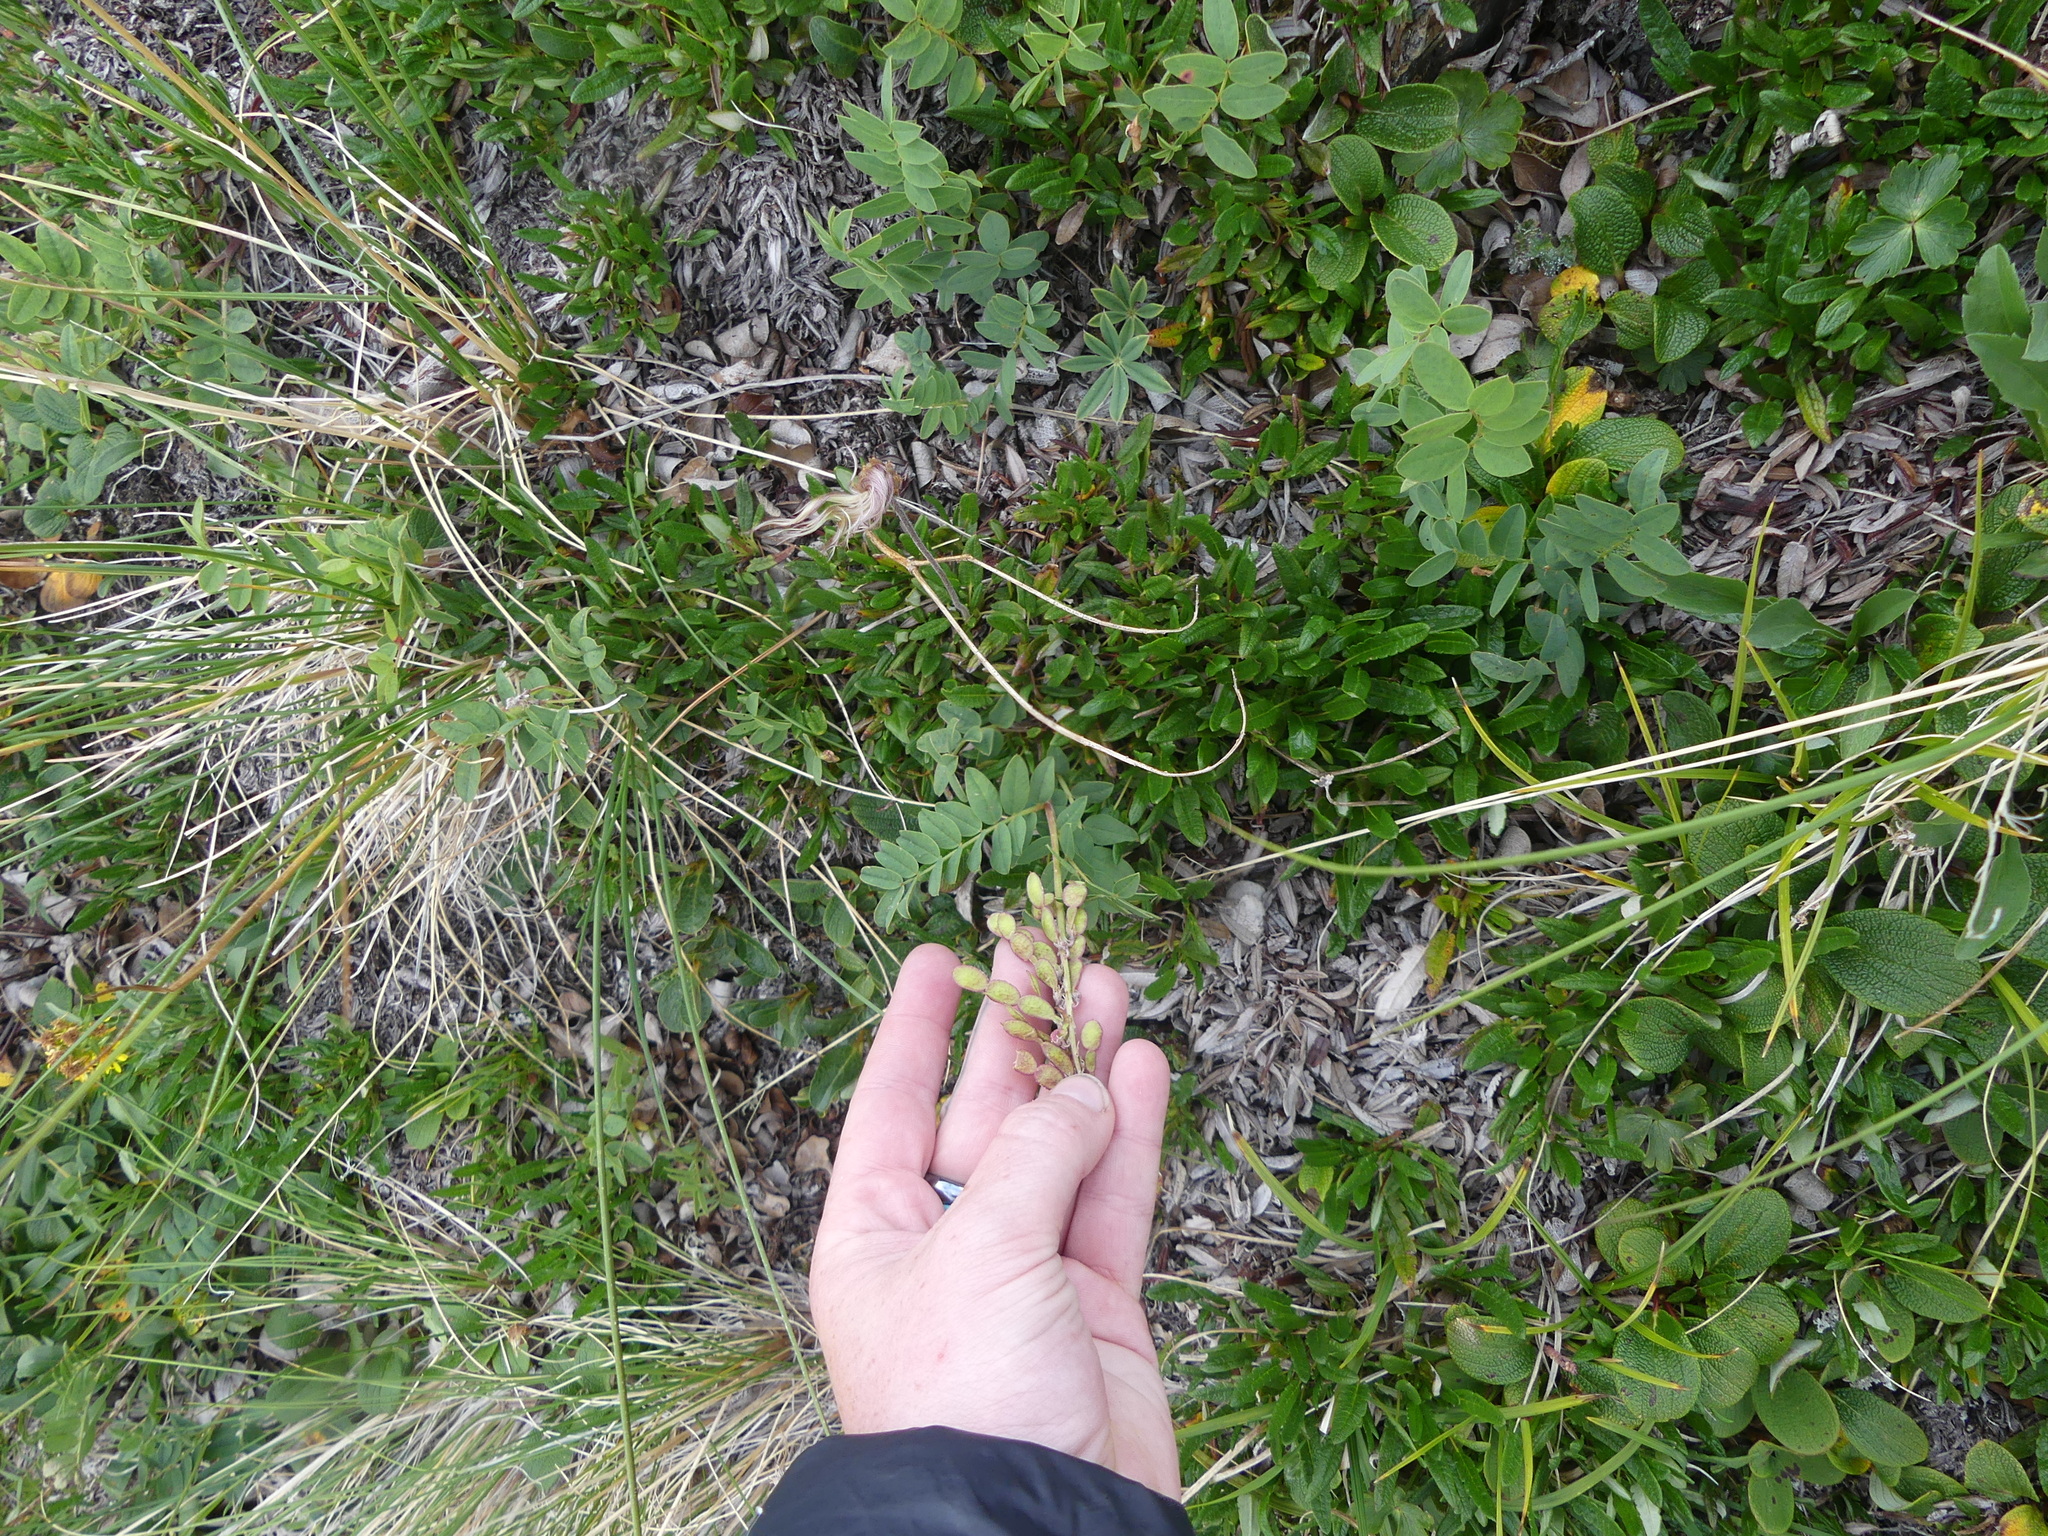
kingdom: Plantae
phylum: Tracheophyta
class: Magnoliopsida
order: Fabales
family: Fabaceae
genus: Hedysarum
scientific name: Hedysarum alpinum
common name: Alpine sweet-vetch
